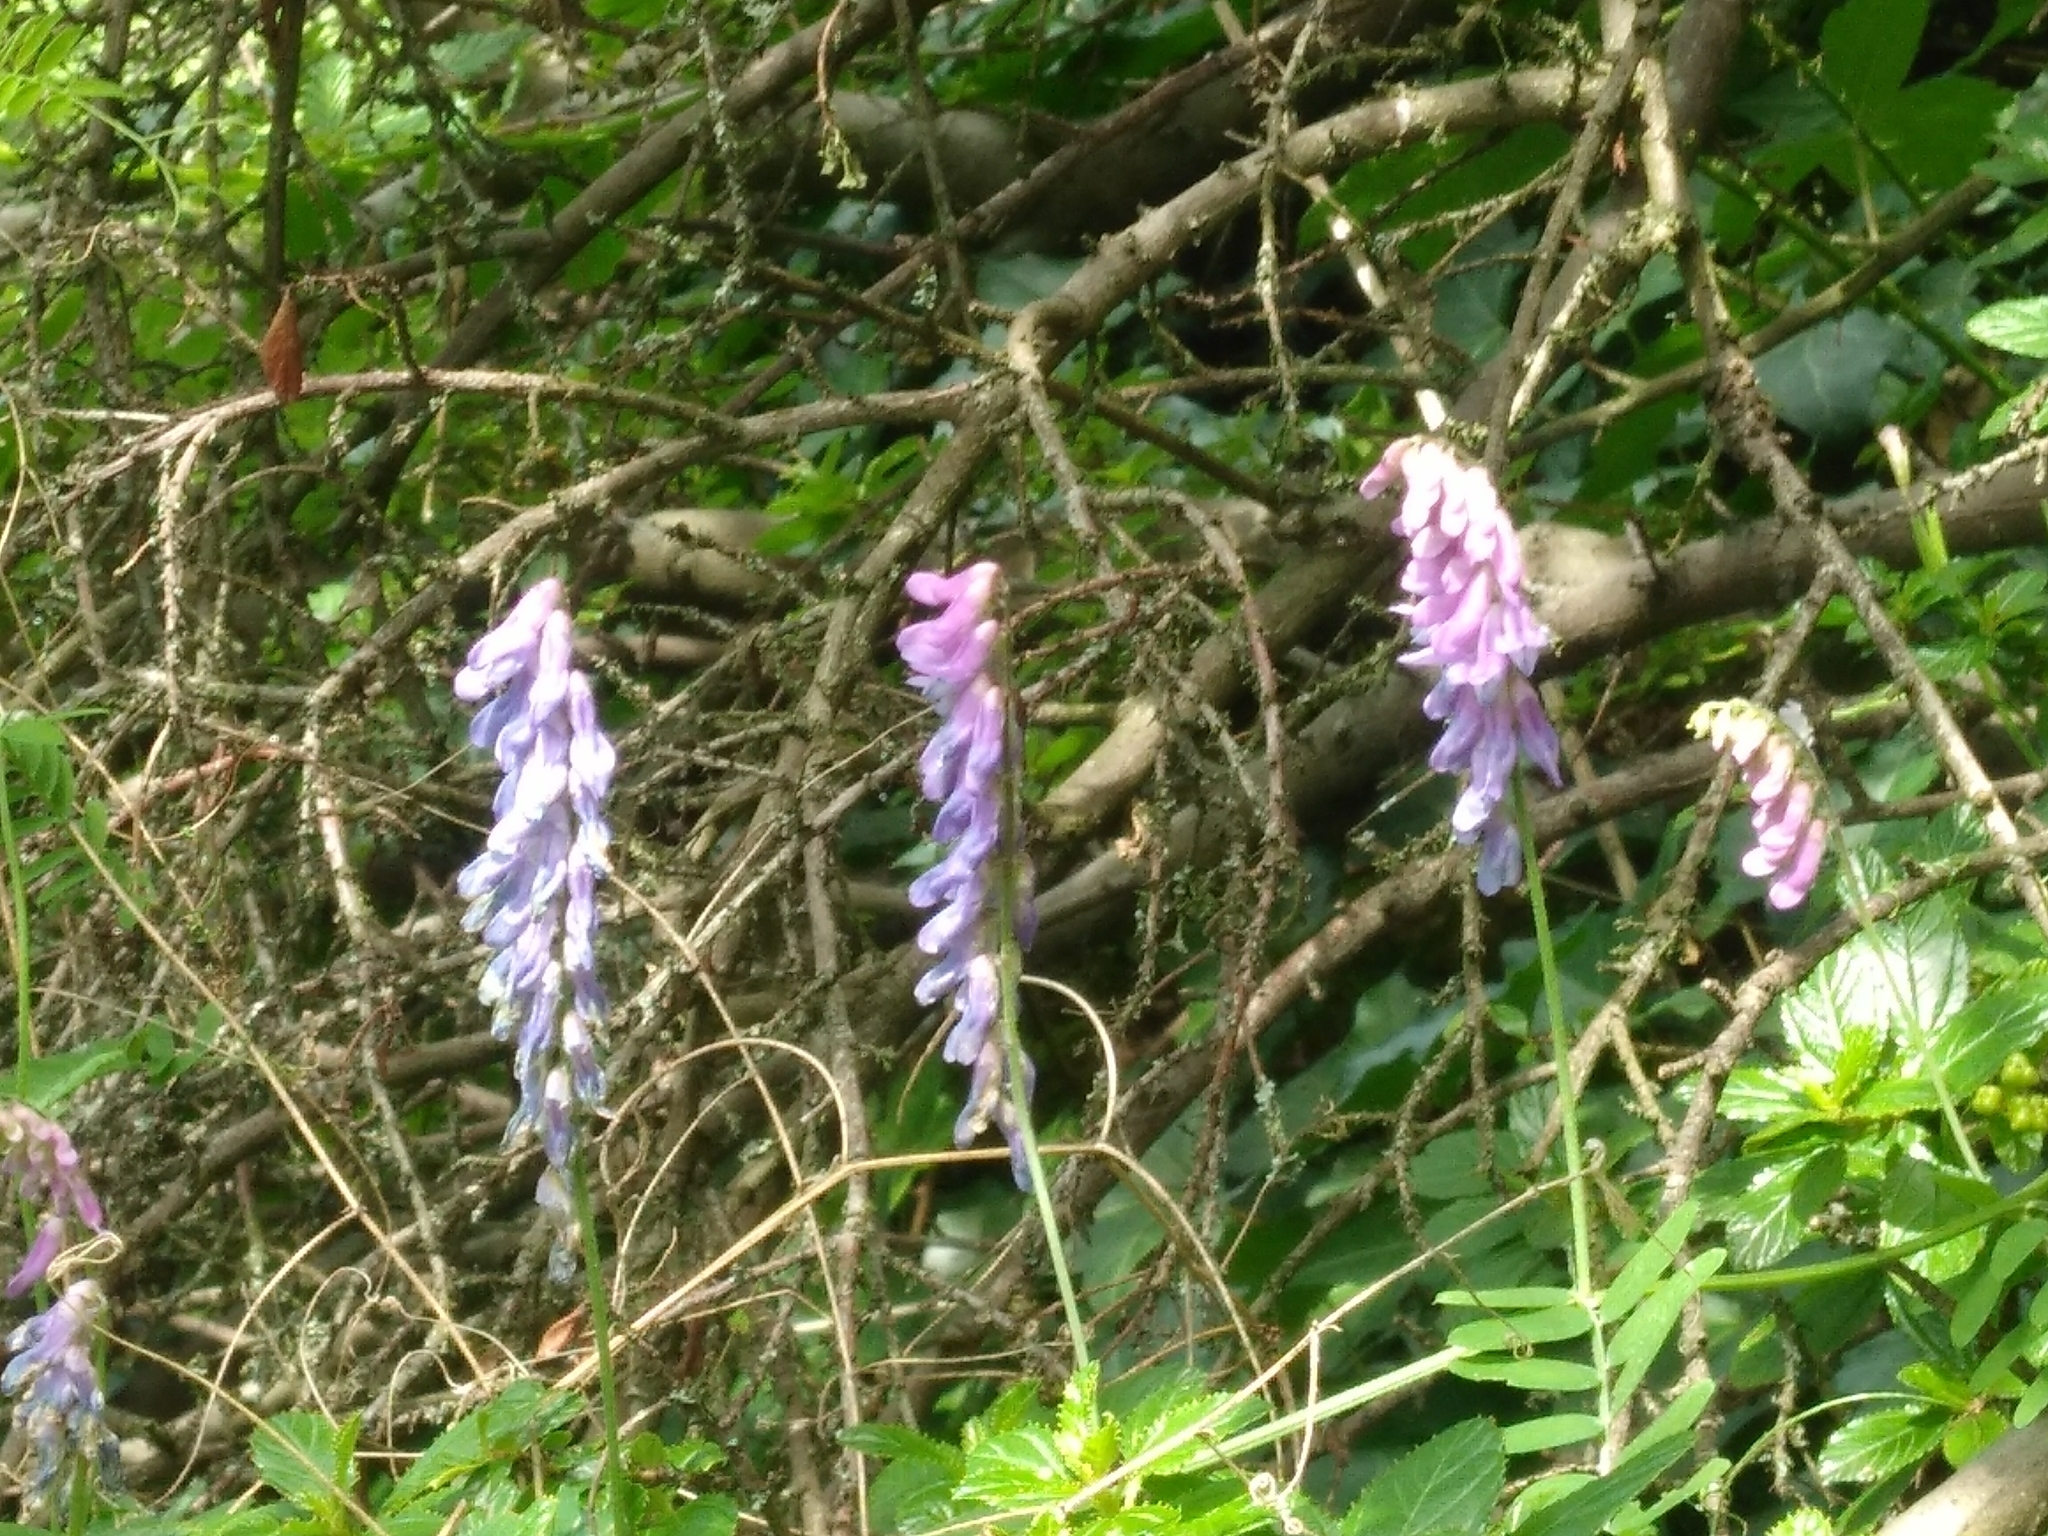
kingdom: Plantae
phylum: Tracheophyta
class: Magnoliopsida
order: Fabales
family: Fabaceae
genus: Vicia
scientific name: Vicia cracca
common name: Bird vetch
